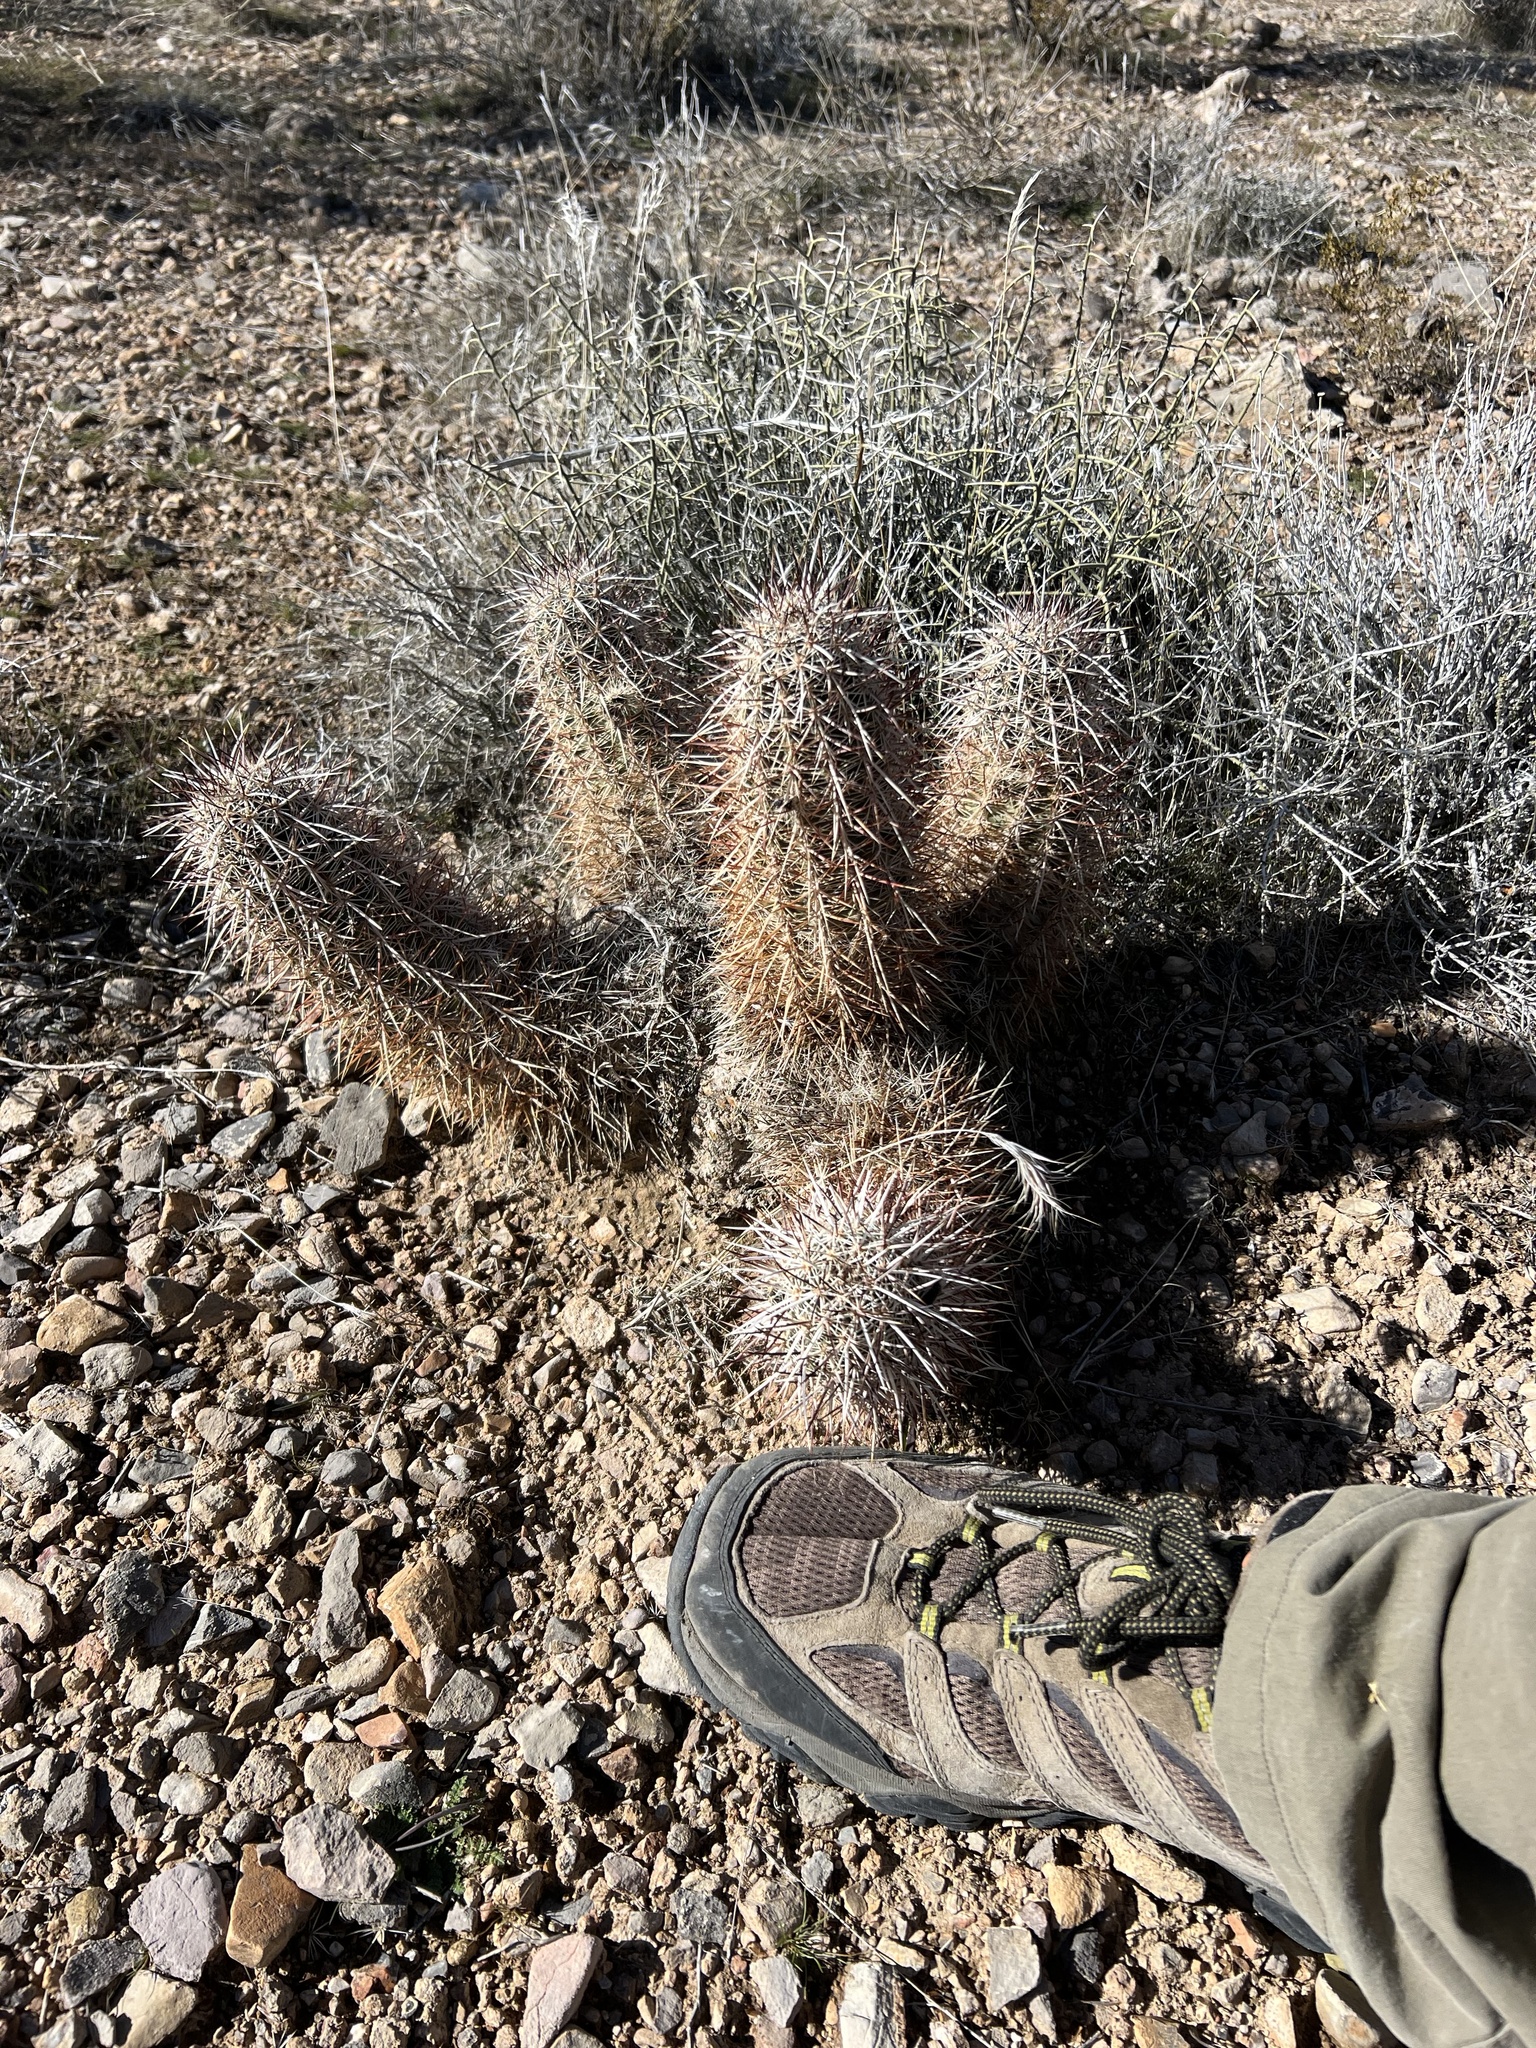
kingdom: Plantae
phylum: Tracheophyta
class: Magnoliopsida
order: Caryophyllales
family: Cactaceae
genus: Echinocereus
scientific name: Echinocereus engelmannii
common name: Engelmann's hedgehog cactus
